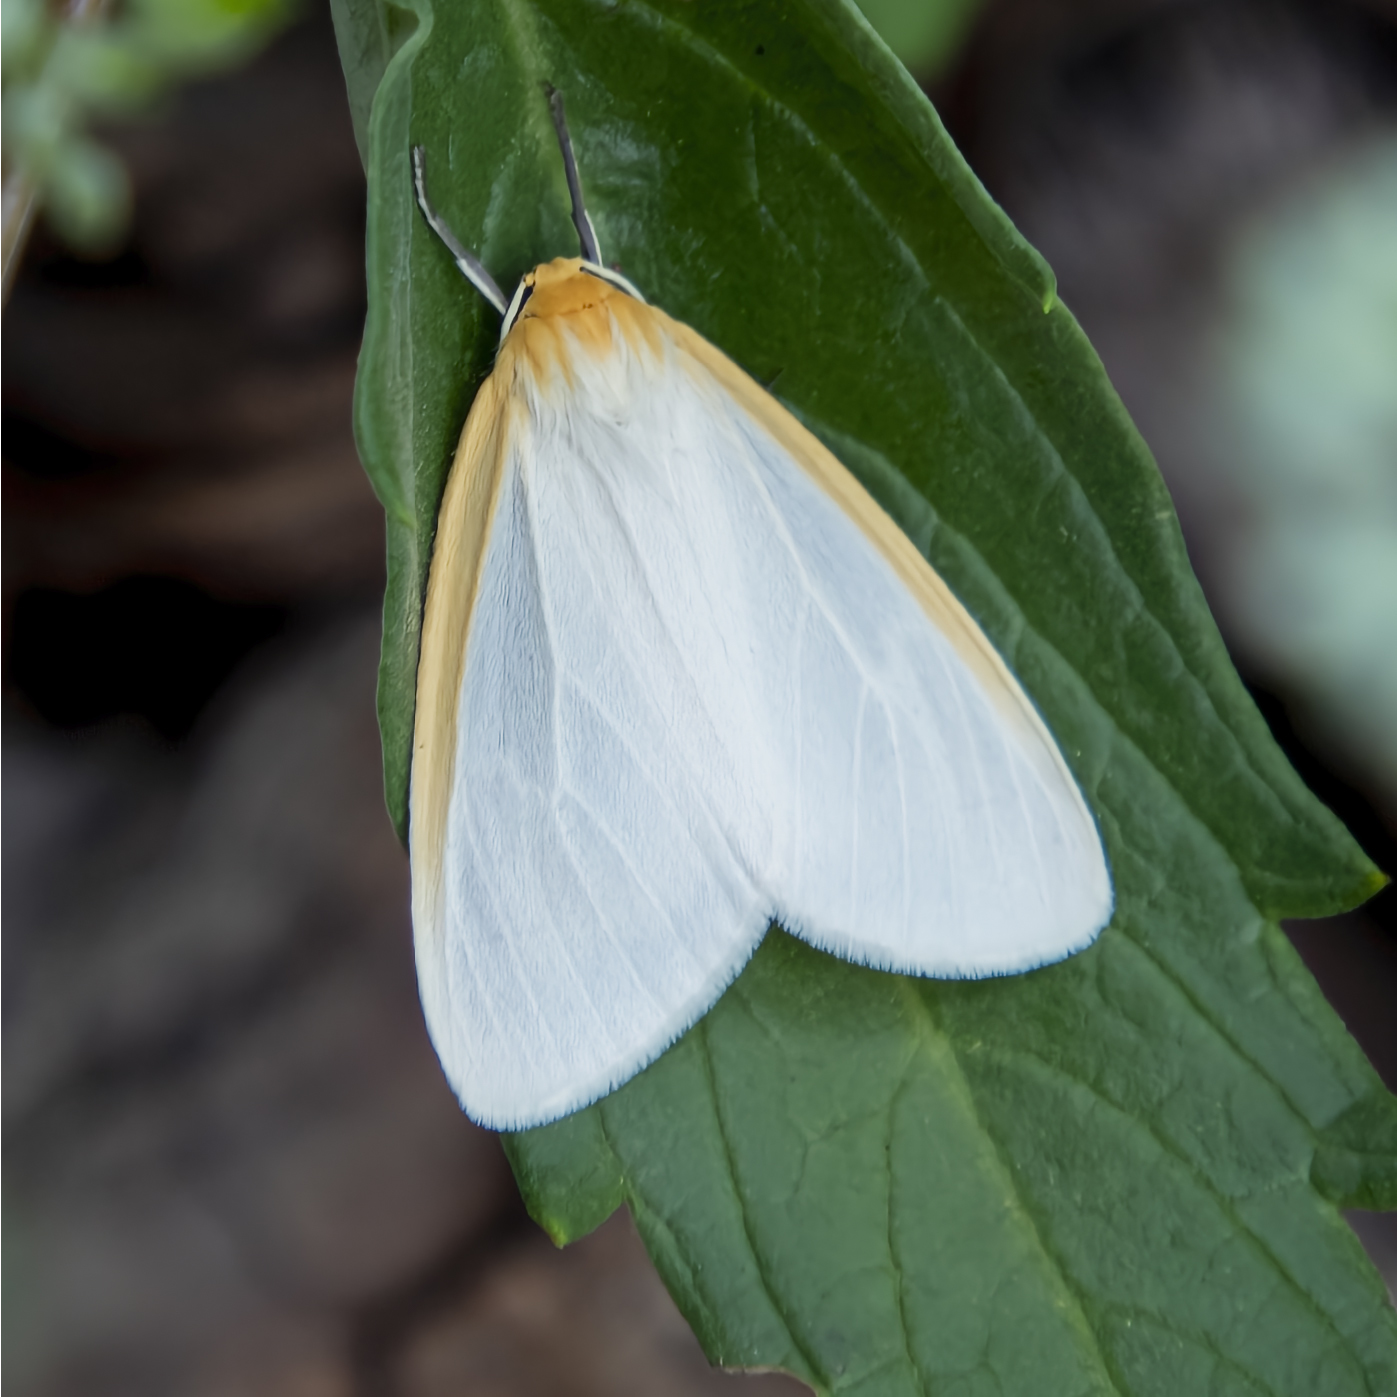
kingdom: Animalia
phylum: Arthropoda
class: Insecta
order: Lepidoptera
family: Erebidae
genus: Cycnia
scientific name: Cycnia tenera
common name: Delicate cycnia moth
